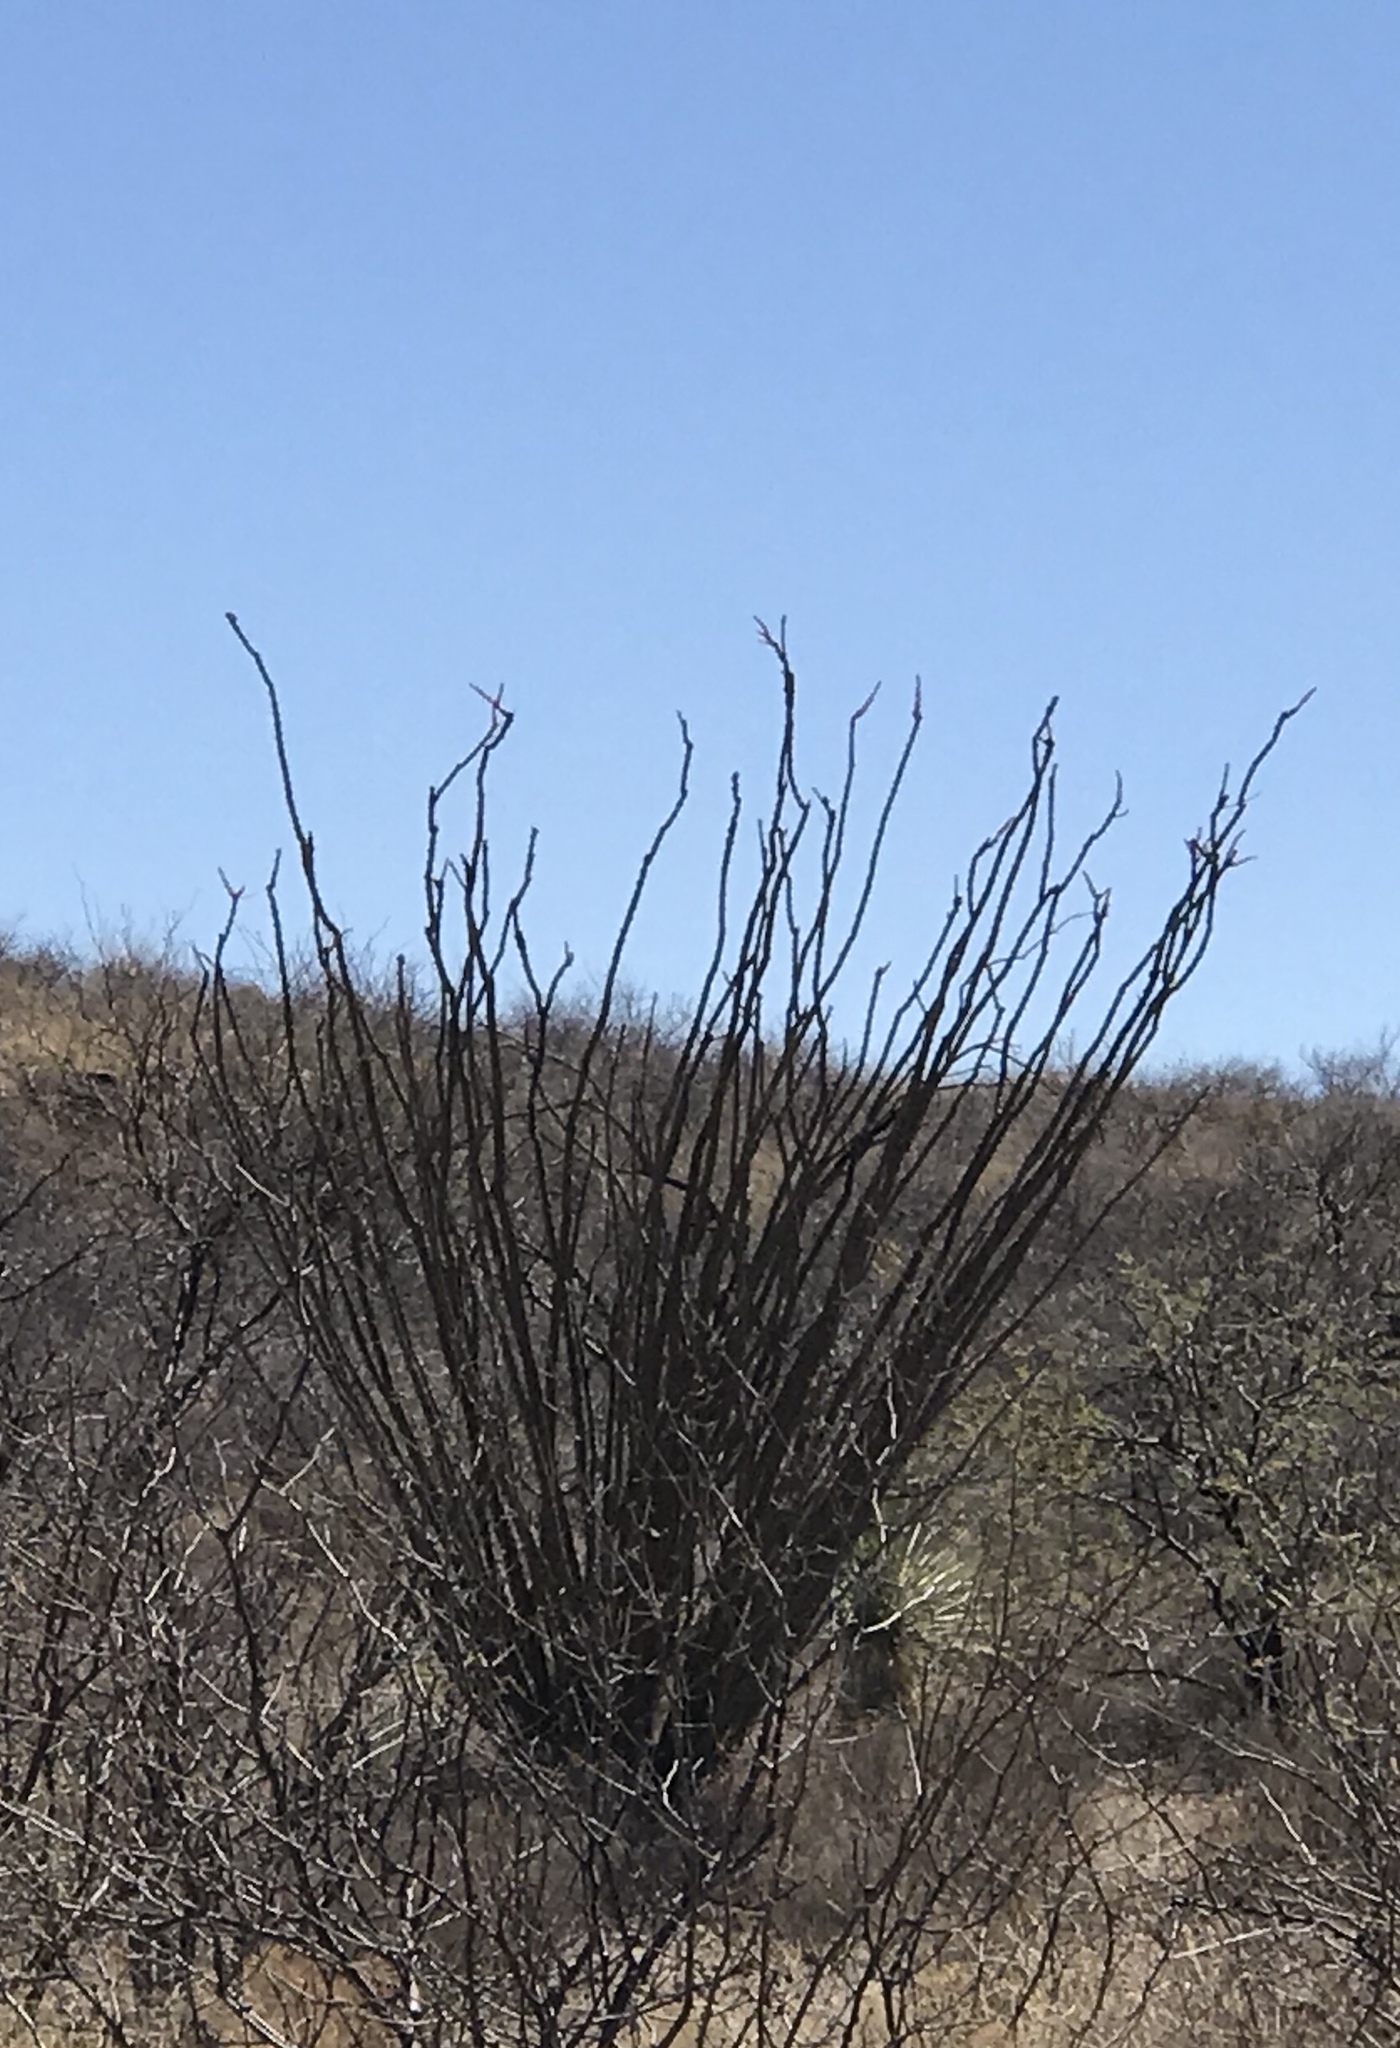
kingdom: Plantae
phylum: Tracheophyta
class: Magnoliopsida
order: Ericales
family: Fouquieriaceae
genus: Fouquieria
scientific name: Fouquieria splendens
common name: Vine-cactus
